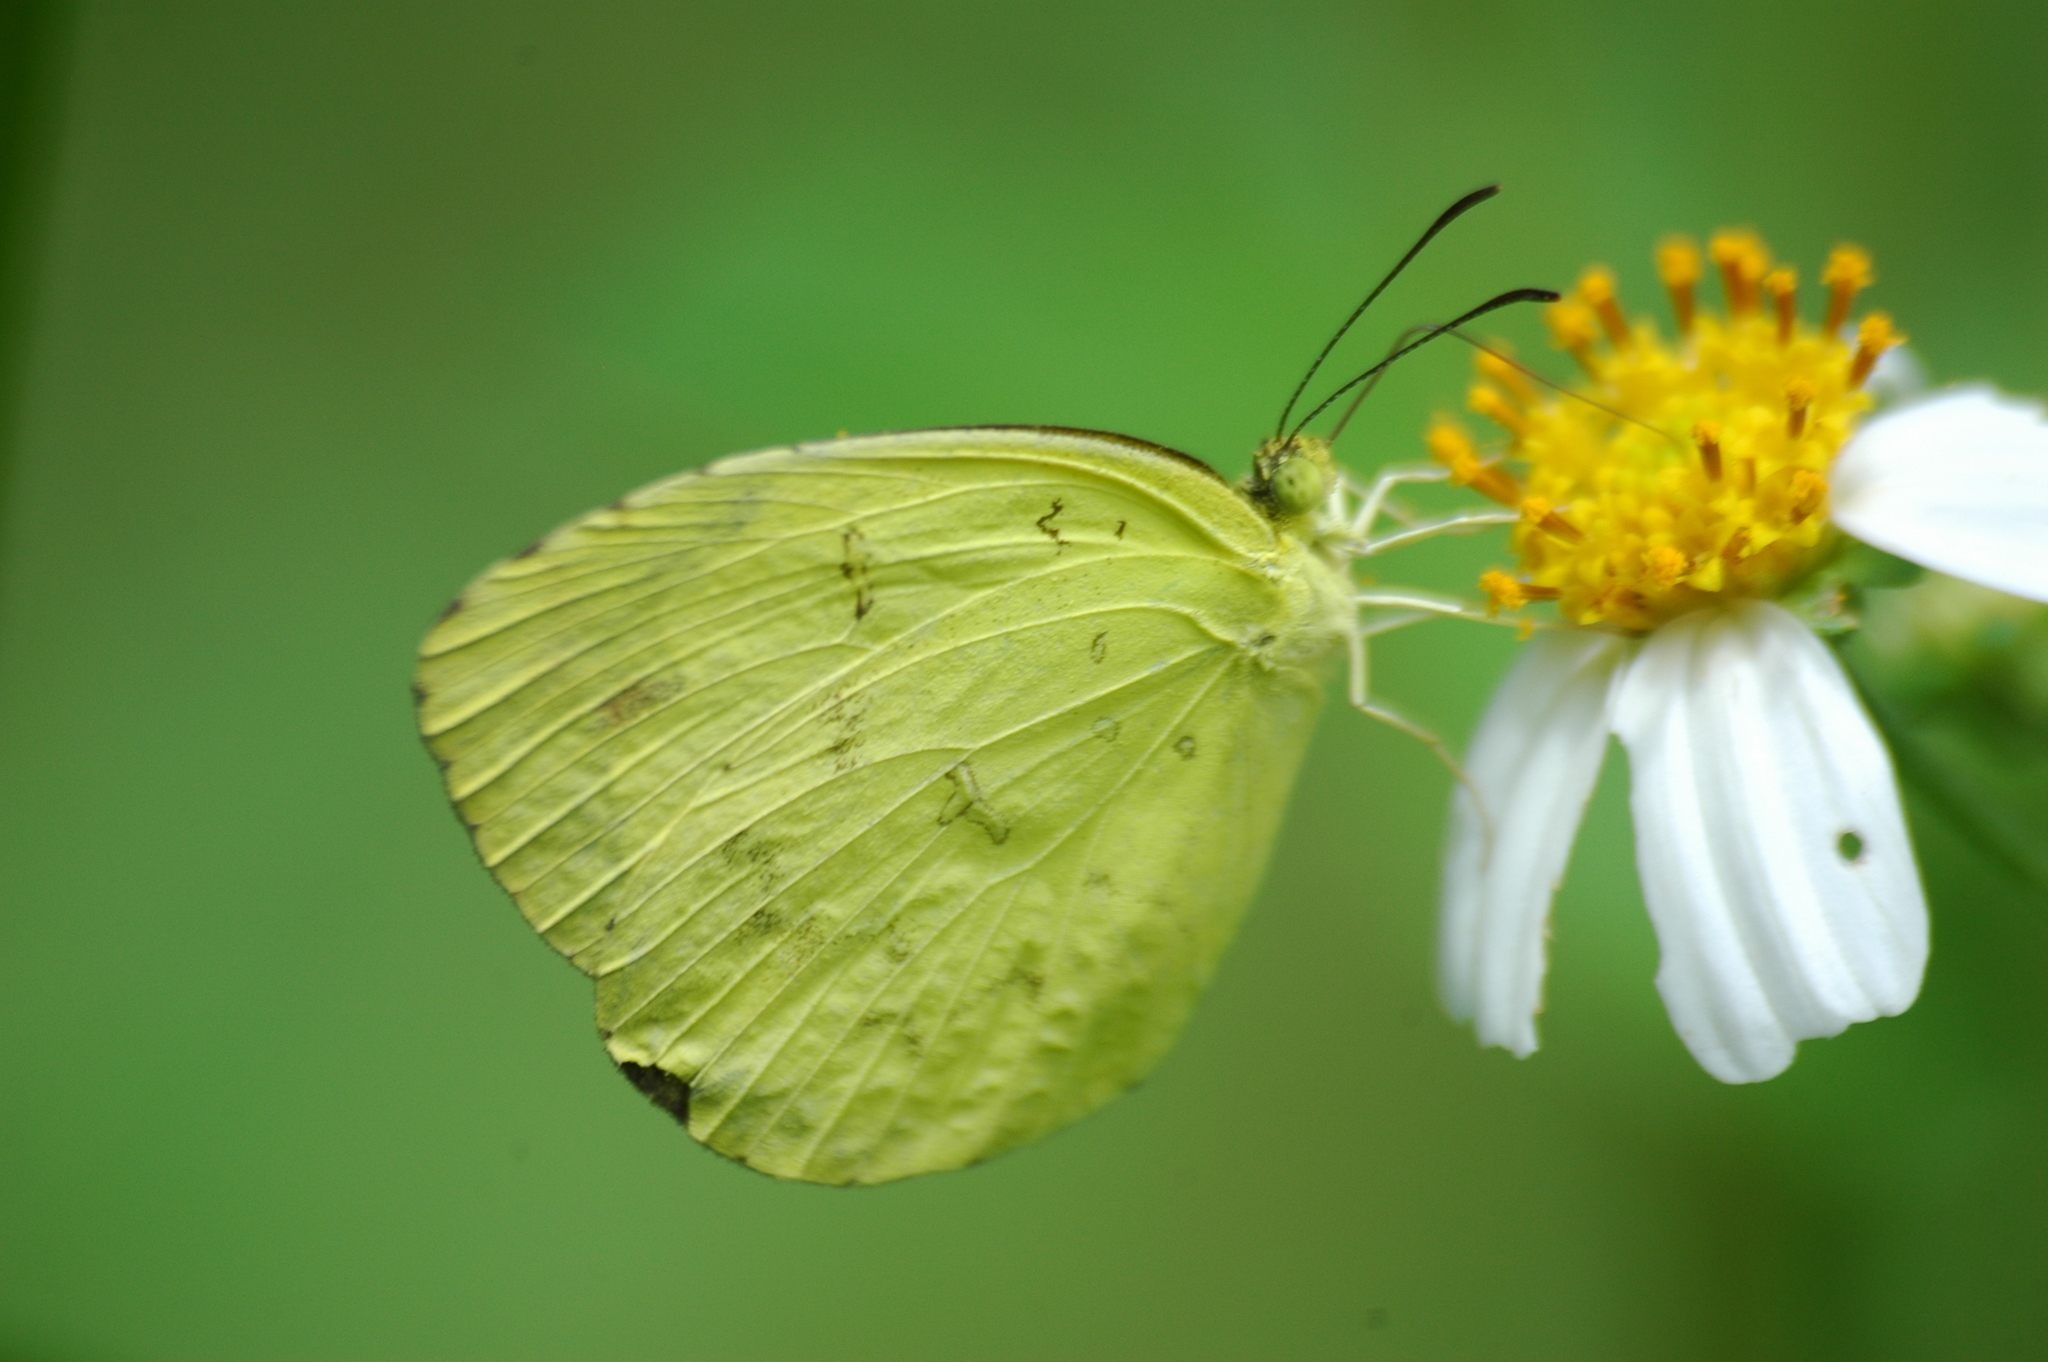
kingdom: Animalia
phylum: Arthropoda
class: Insecta
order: Lepidoptera
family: Pieridae
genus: Eurema
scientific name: Eurema hecabe
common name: Pale grass yellow
